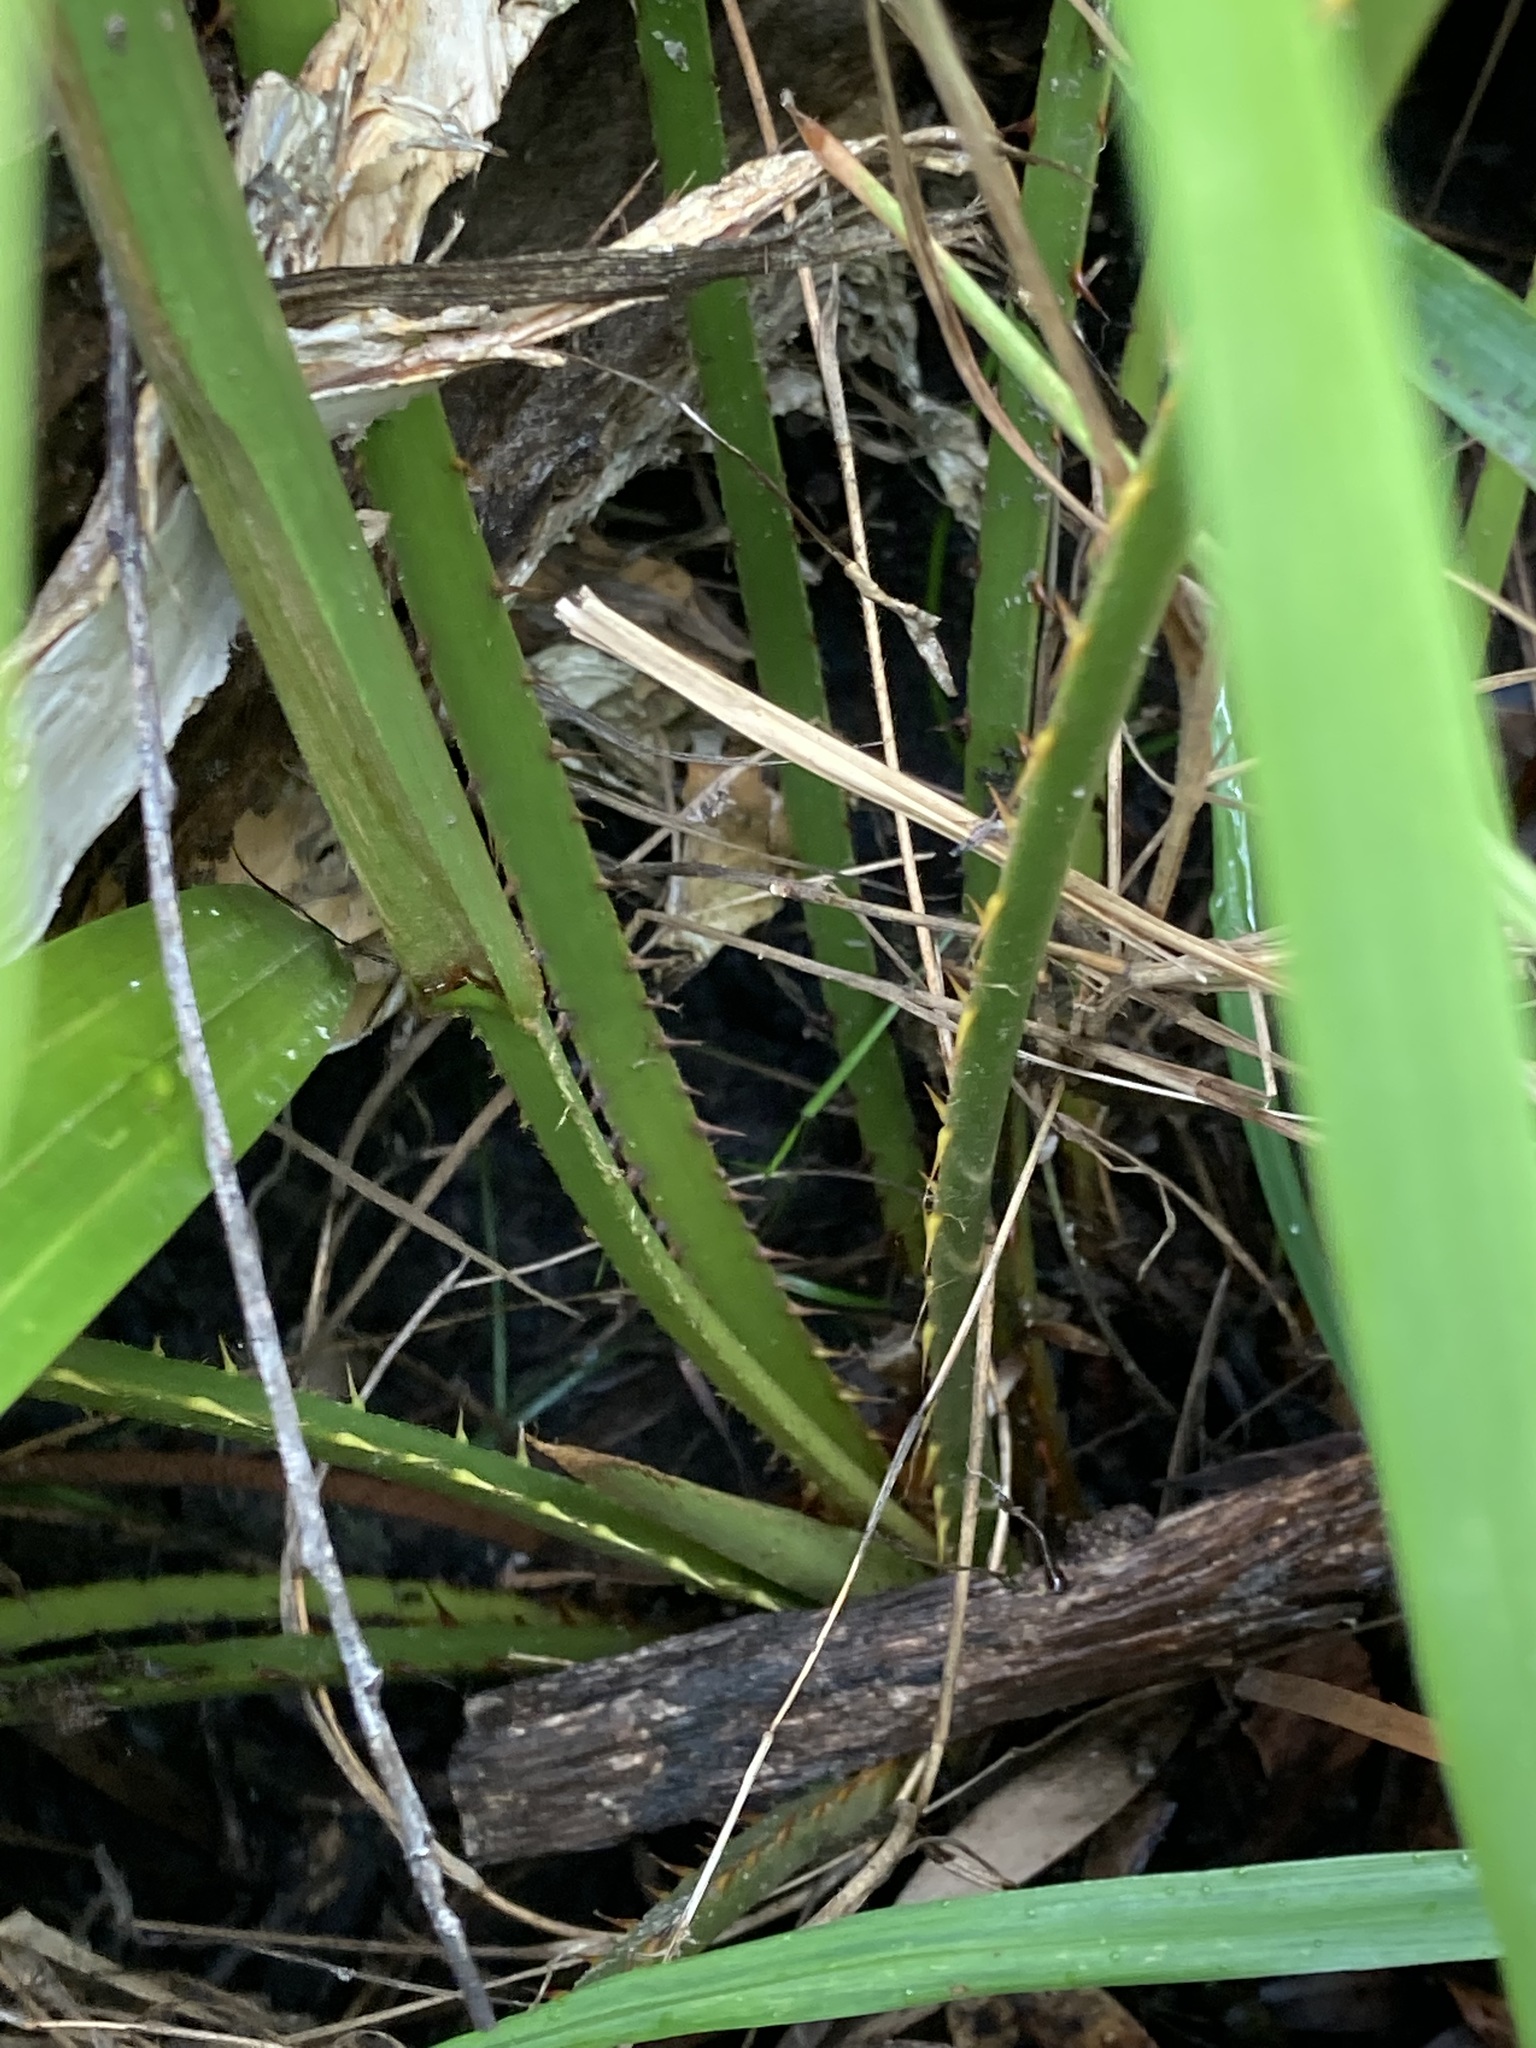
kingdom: Plantae
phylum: Tracheophyta
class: Liliopsida
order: Arecales
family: Arecaceae
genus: Livistona
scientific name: Livistona australis
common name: Cabbage fan palm
